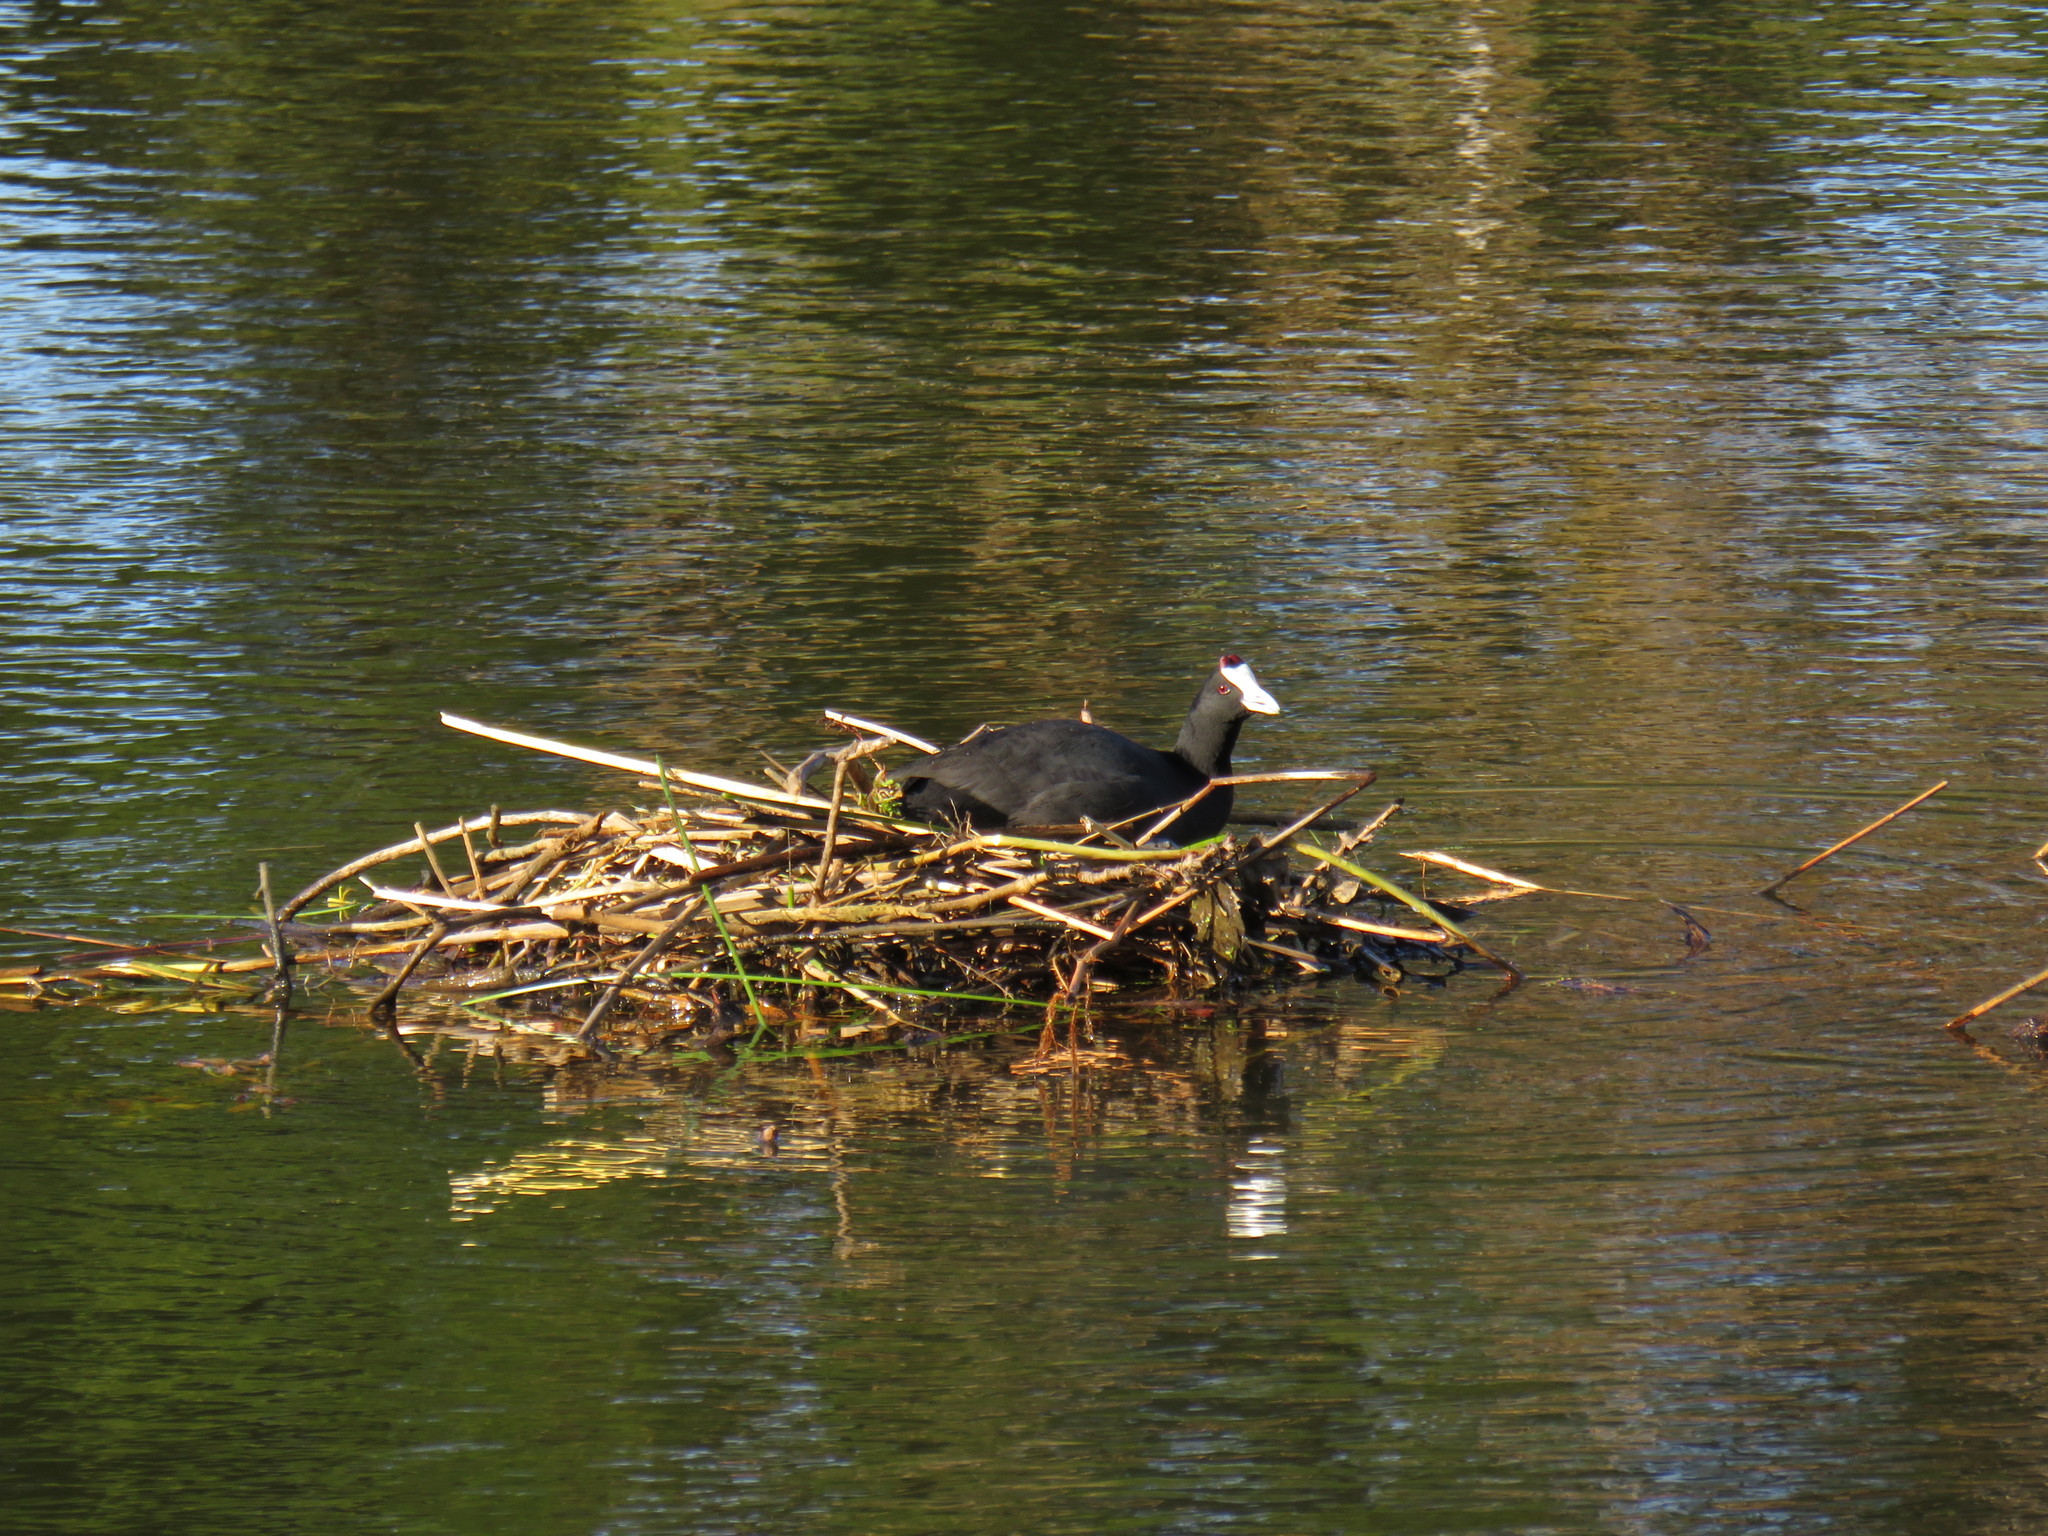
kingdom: Animalia
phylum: Chordata
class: Aves
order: Gruiformes
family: Rallidae
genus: Fulica
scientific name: Fulica cristata
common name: Red-knobbed coot
